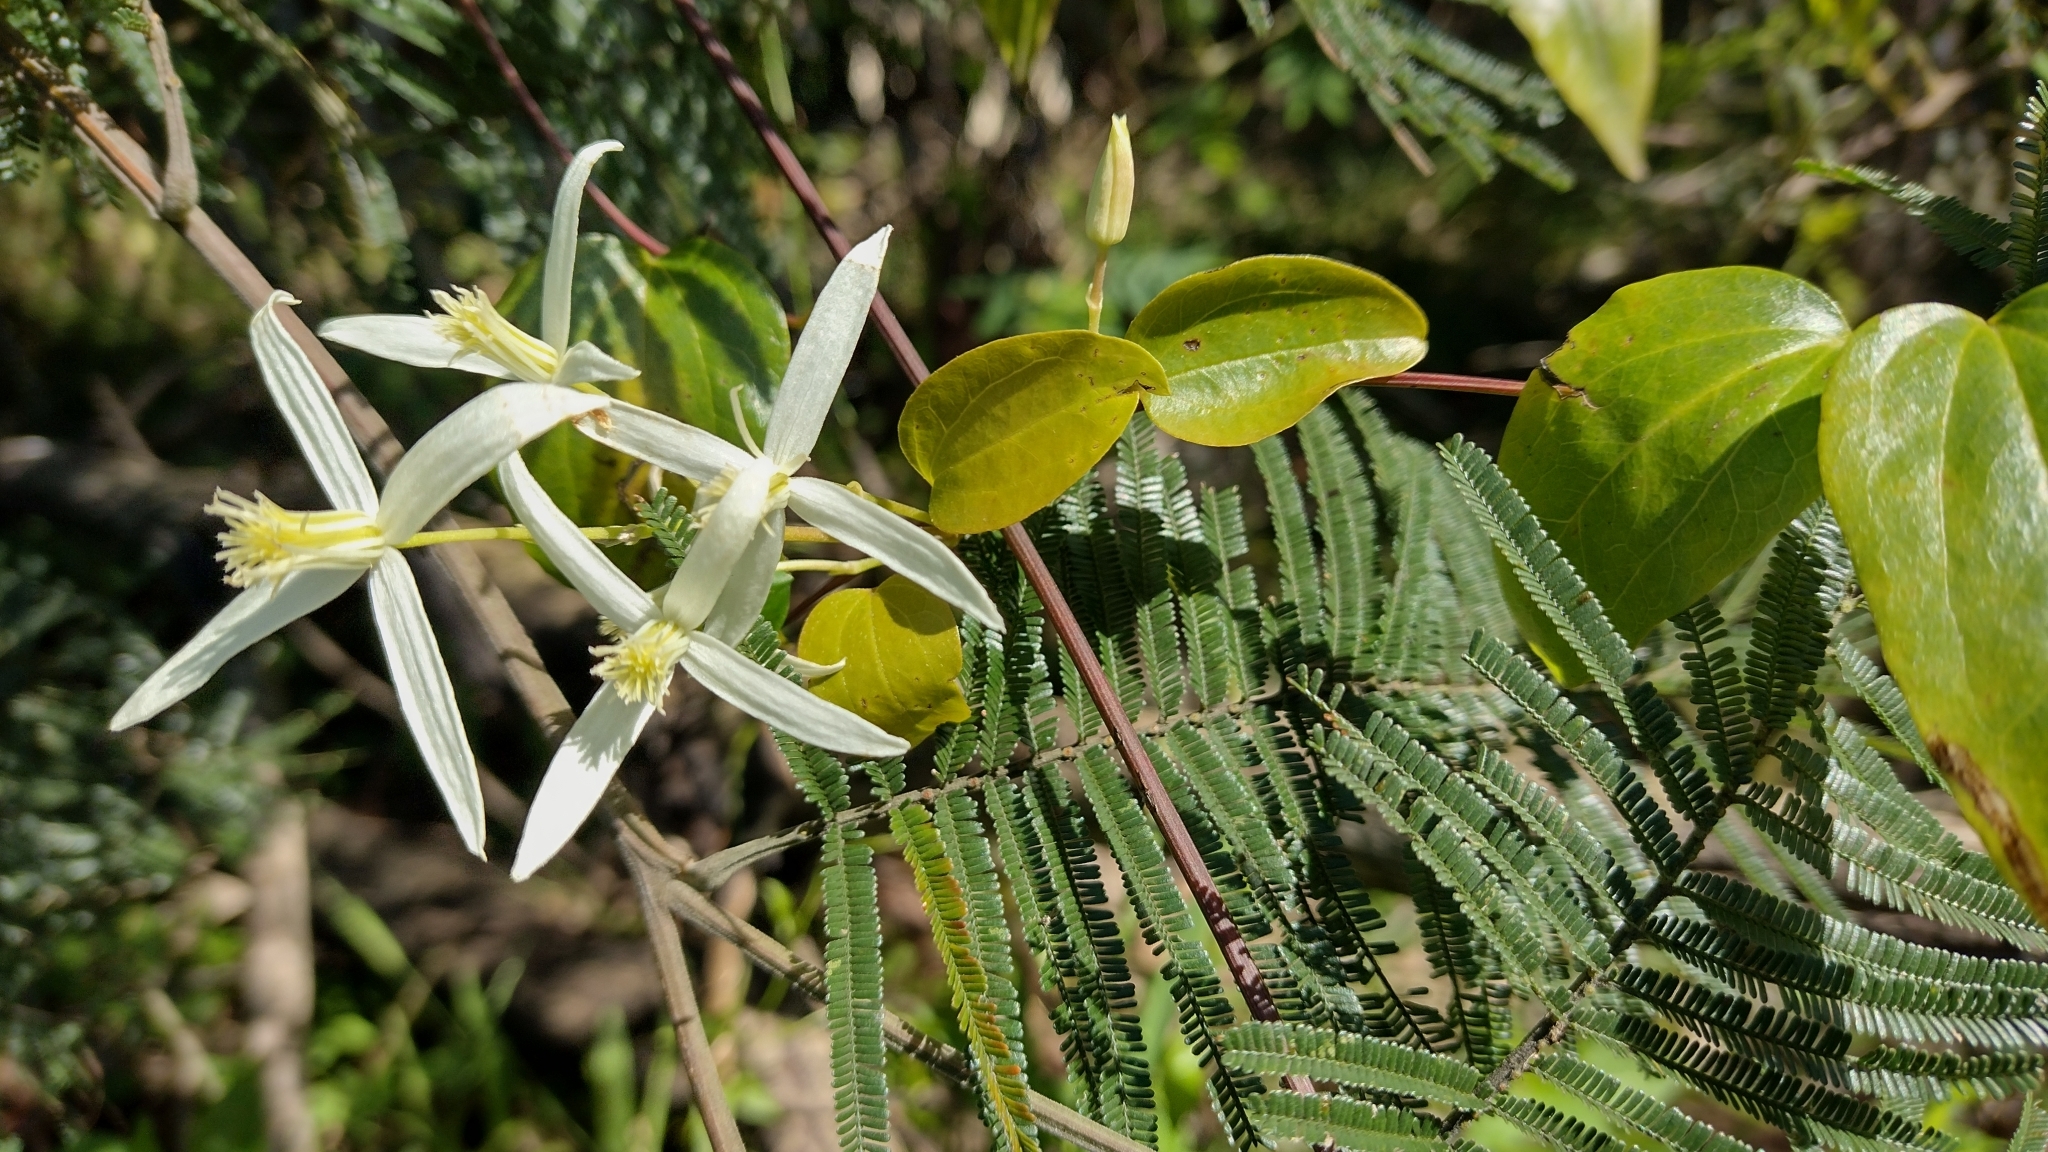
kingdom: Plantae
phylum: Tracheophyta
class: Magnoliopsida
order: Ranunculales
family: Ranunculaceae
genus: Clematis
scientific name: Clematis glycinoides
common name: Forest clematis
